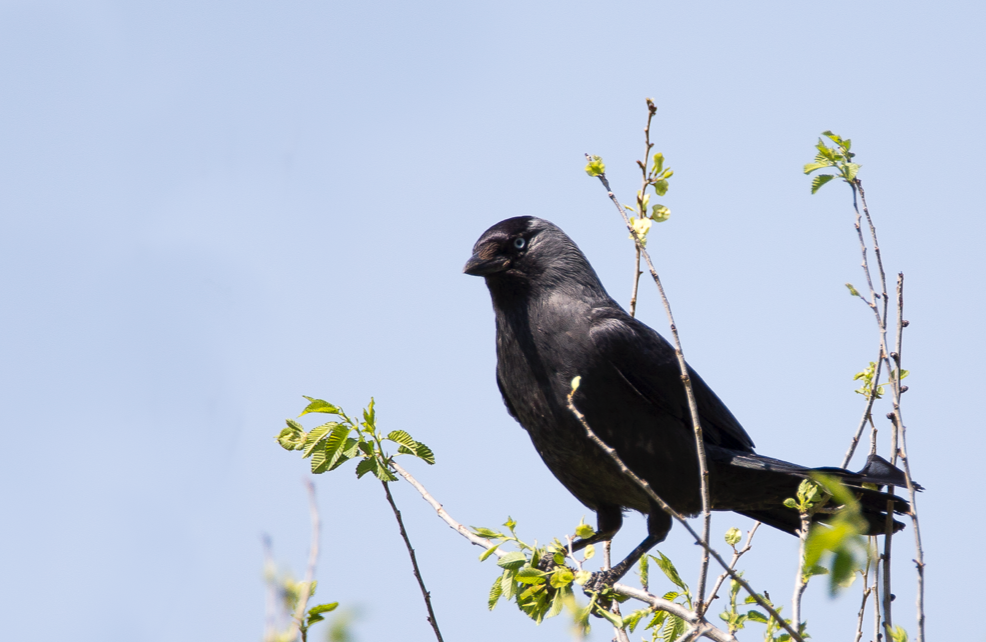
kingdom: Animalia
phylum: Chordata
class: Aves
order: Passeriformes
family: Corvidae
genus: Coloeus
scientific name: Coloeus monedula
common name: Western jackdaw
